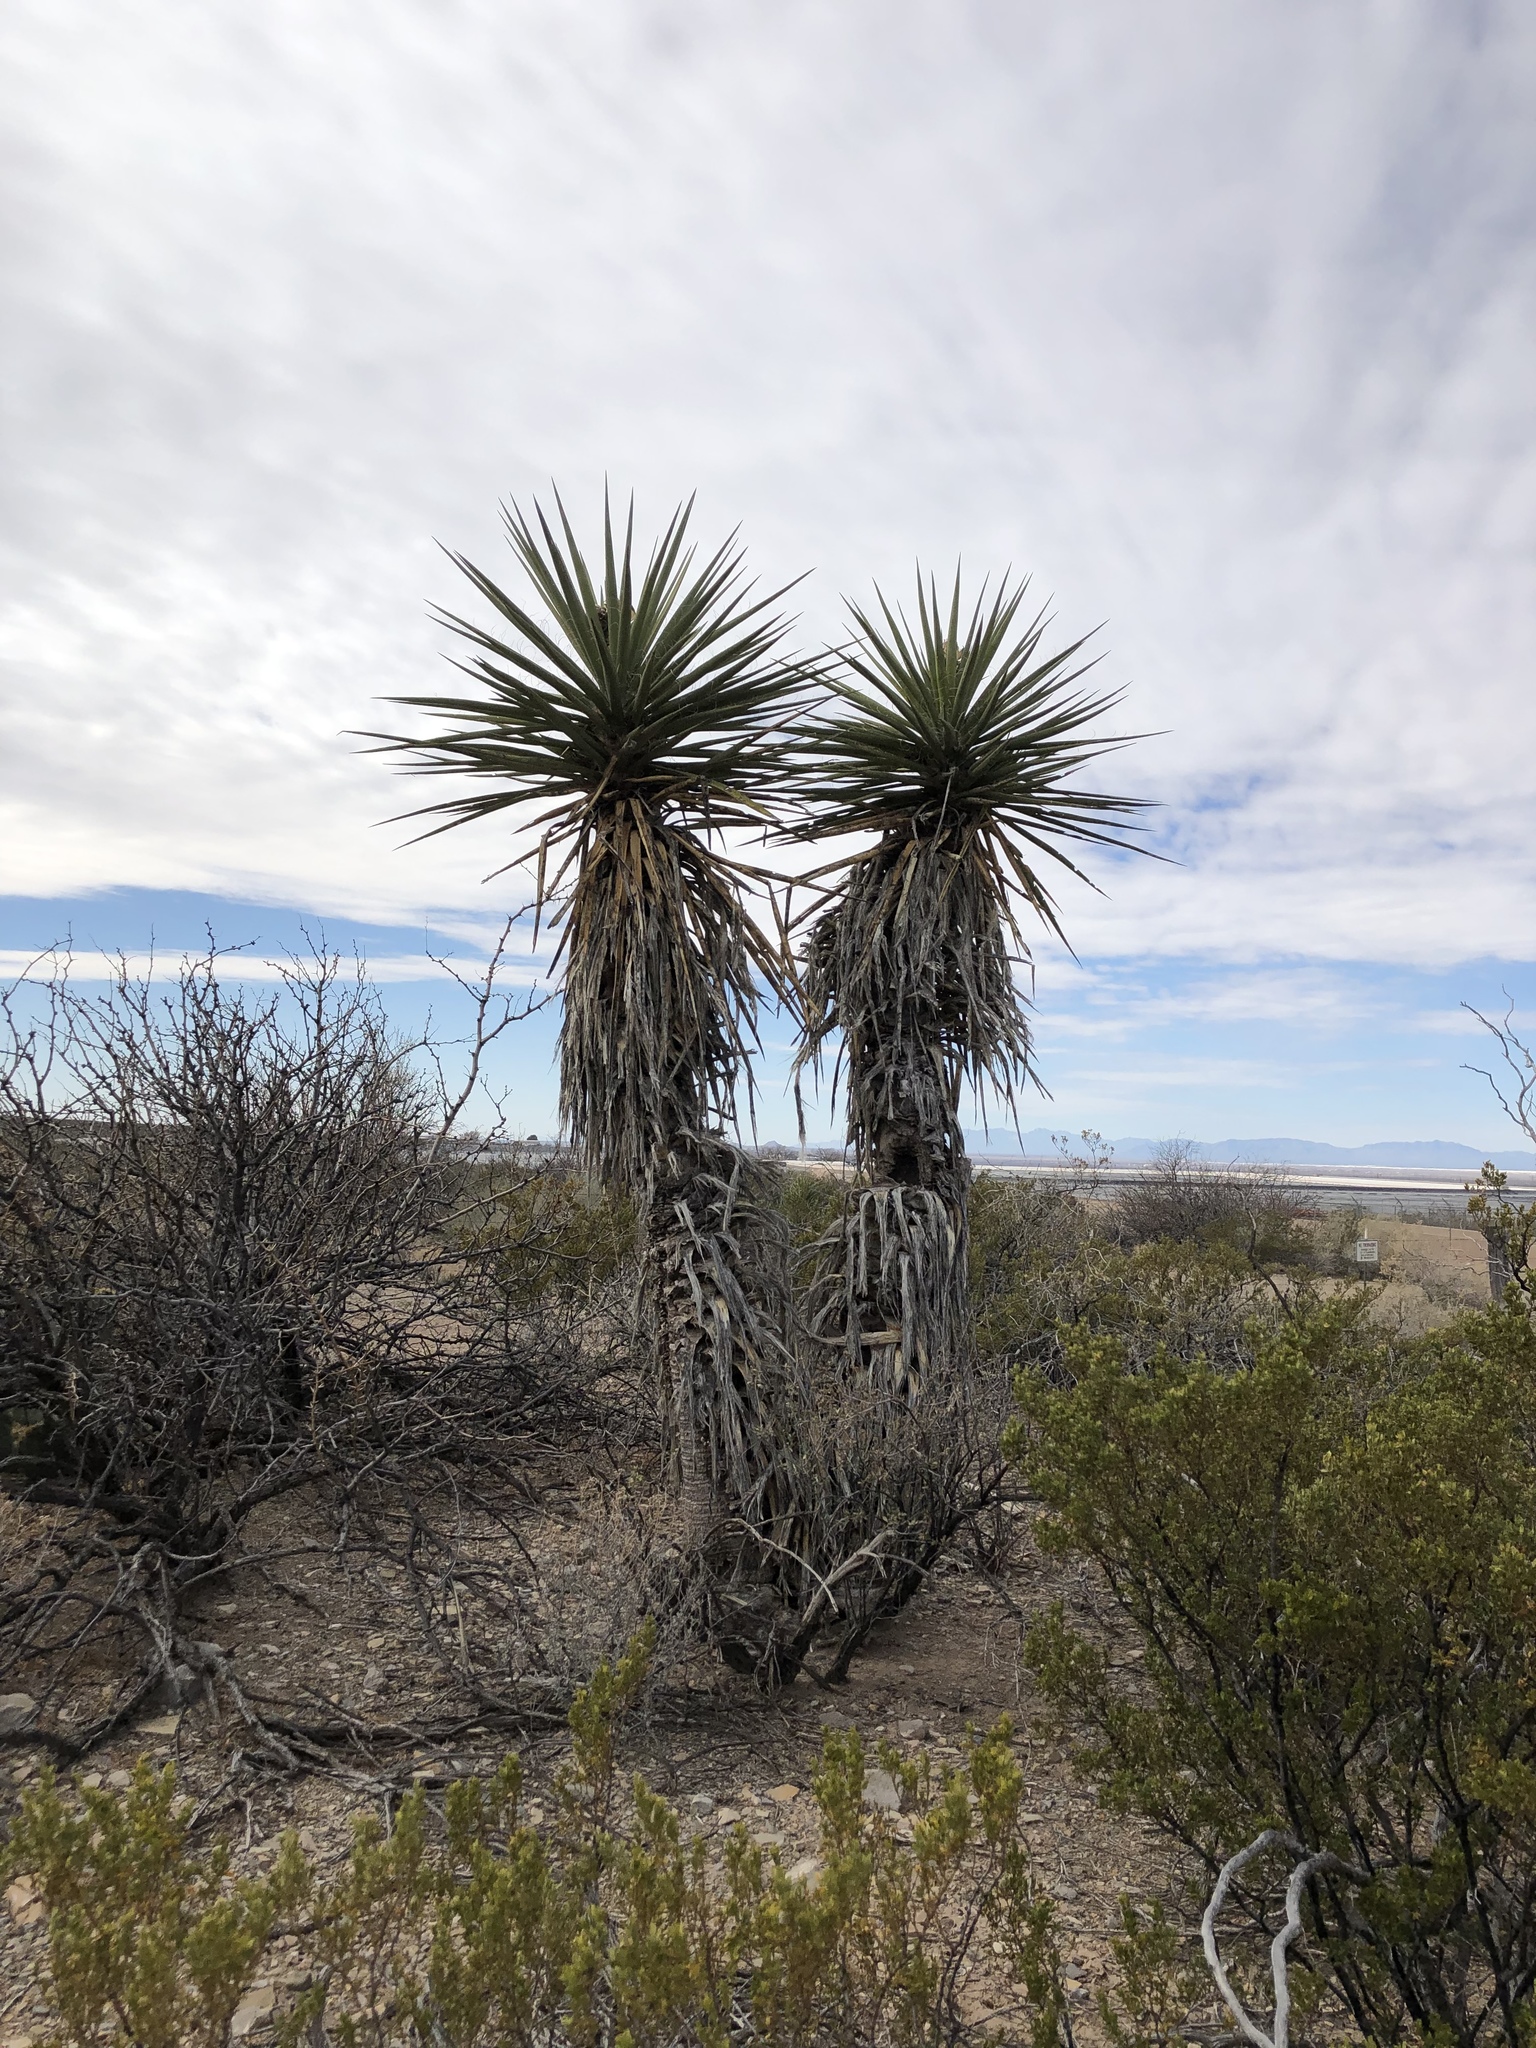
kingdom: Plantae
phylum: Tracheophyta
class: Liliopsida
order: Asparagales
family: Asparagaceae
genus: Yucca
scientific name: Yucca treculiana
